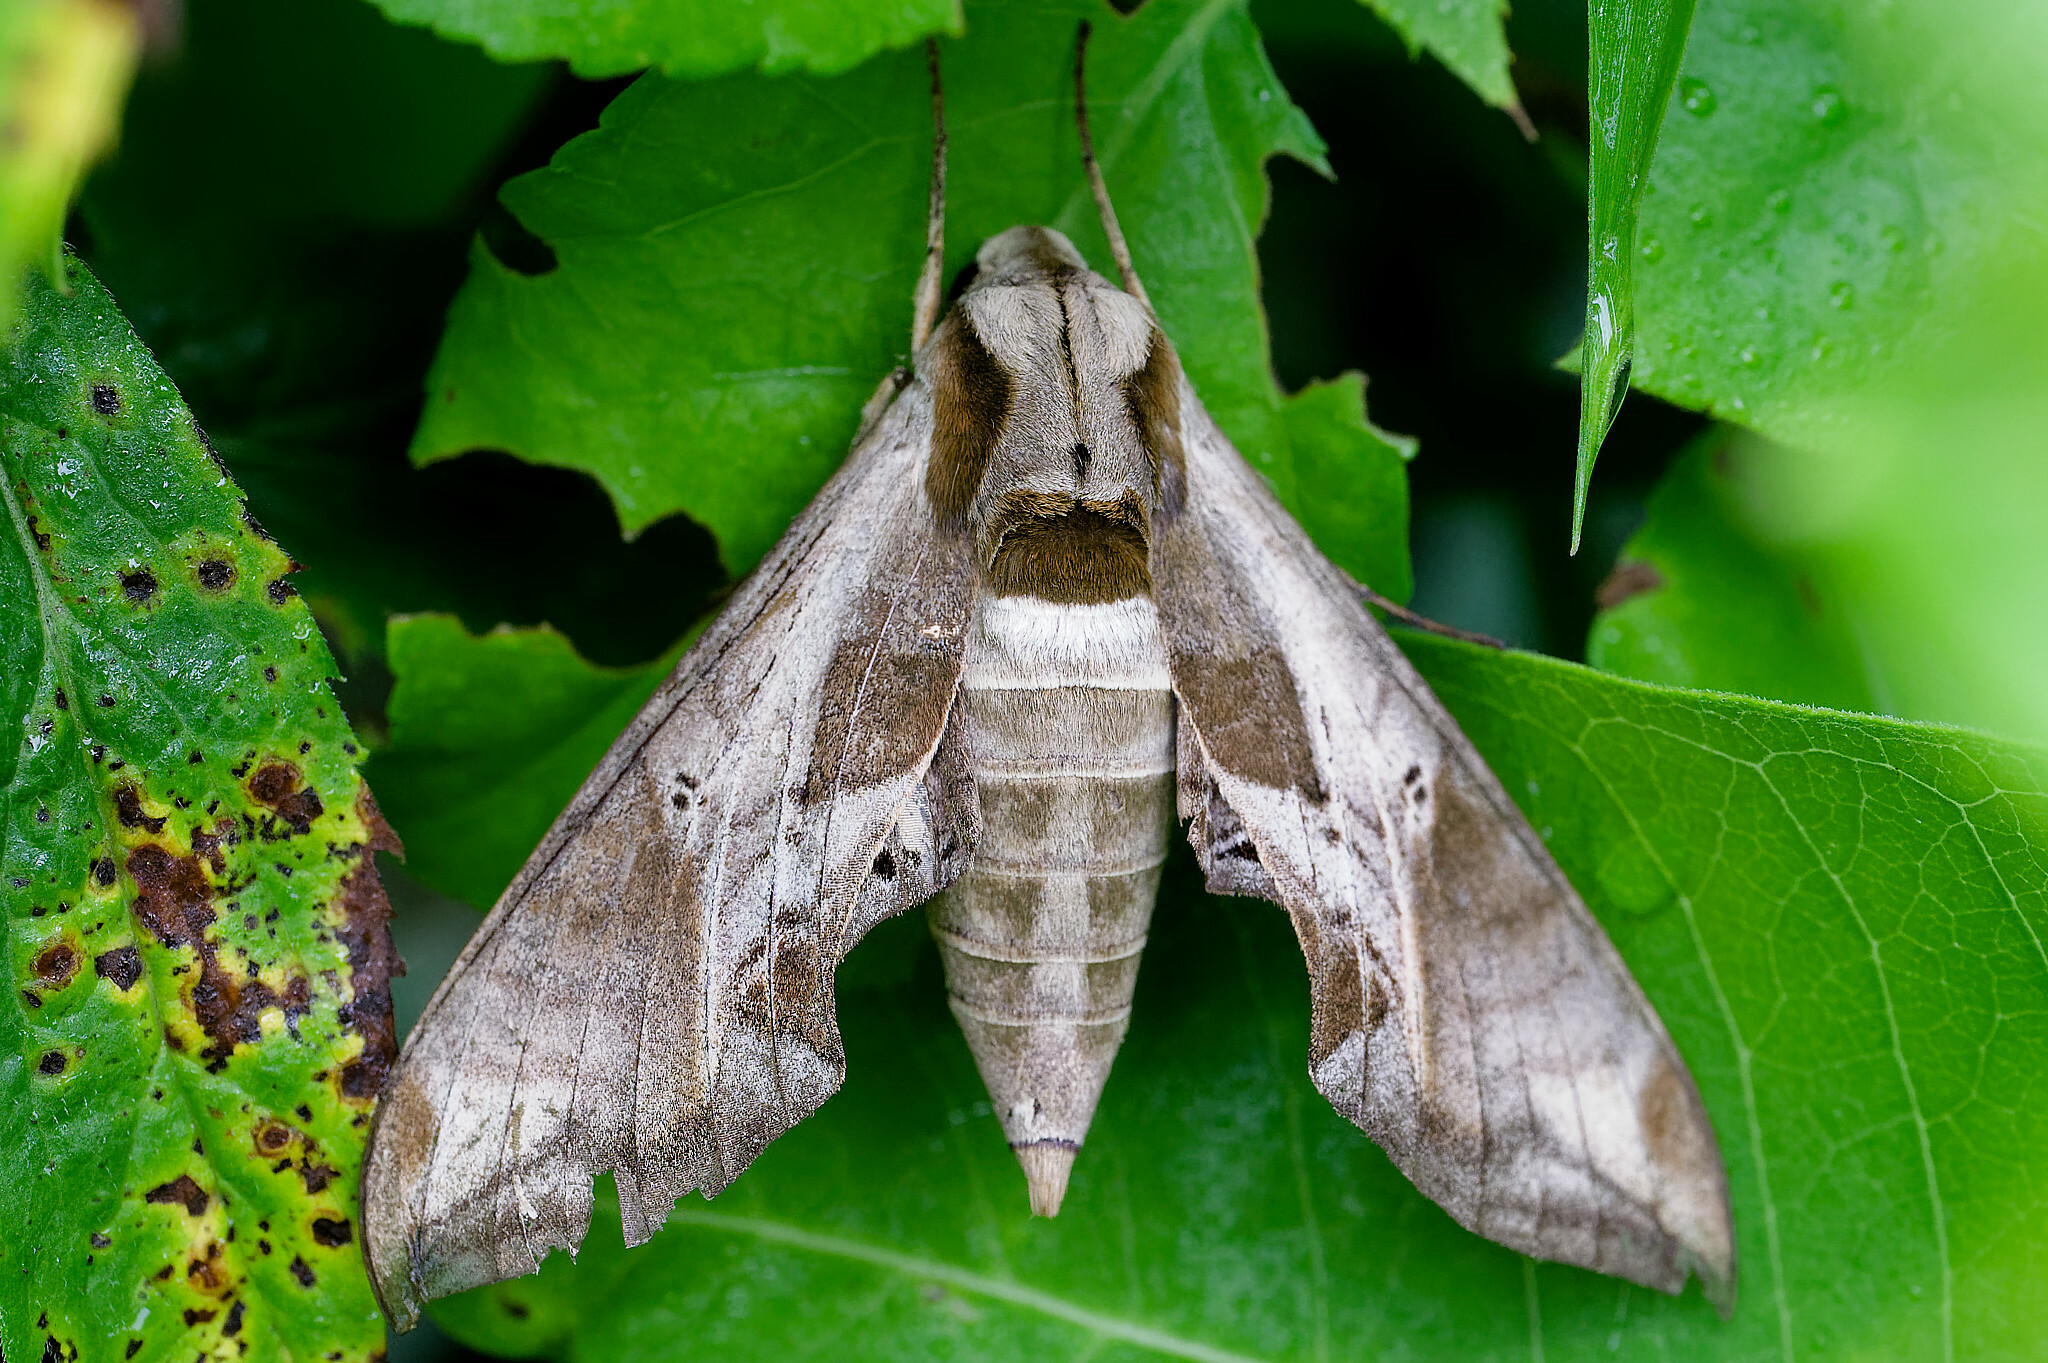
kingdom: Animalia
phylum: Arthropoda
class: Insecta
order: Lepidoptera
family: Sphingidae
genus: Eumorpha
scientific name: Eumorpha pandorus
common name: Pandora sphinx
